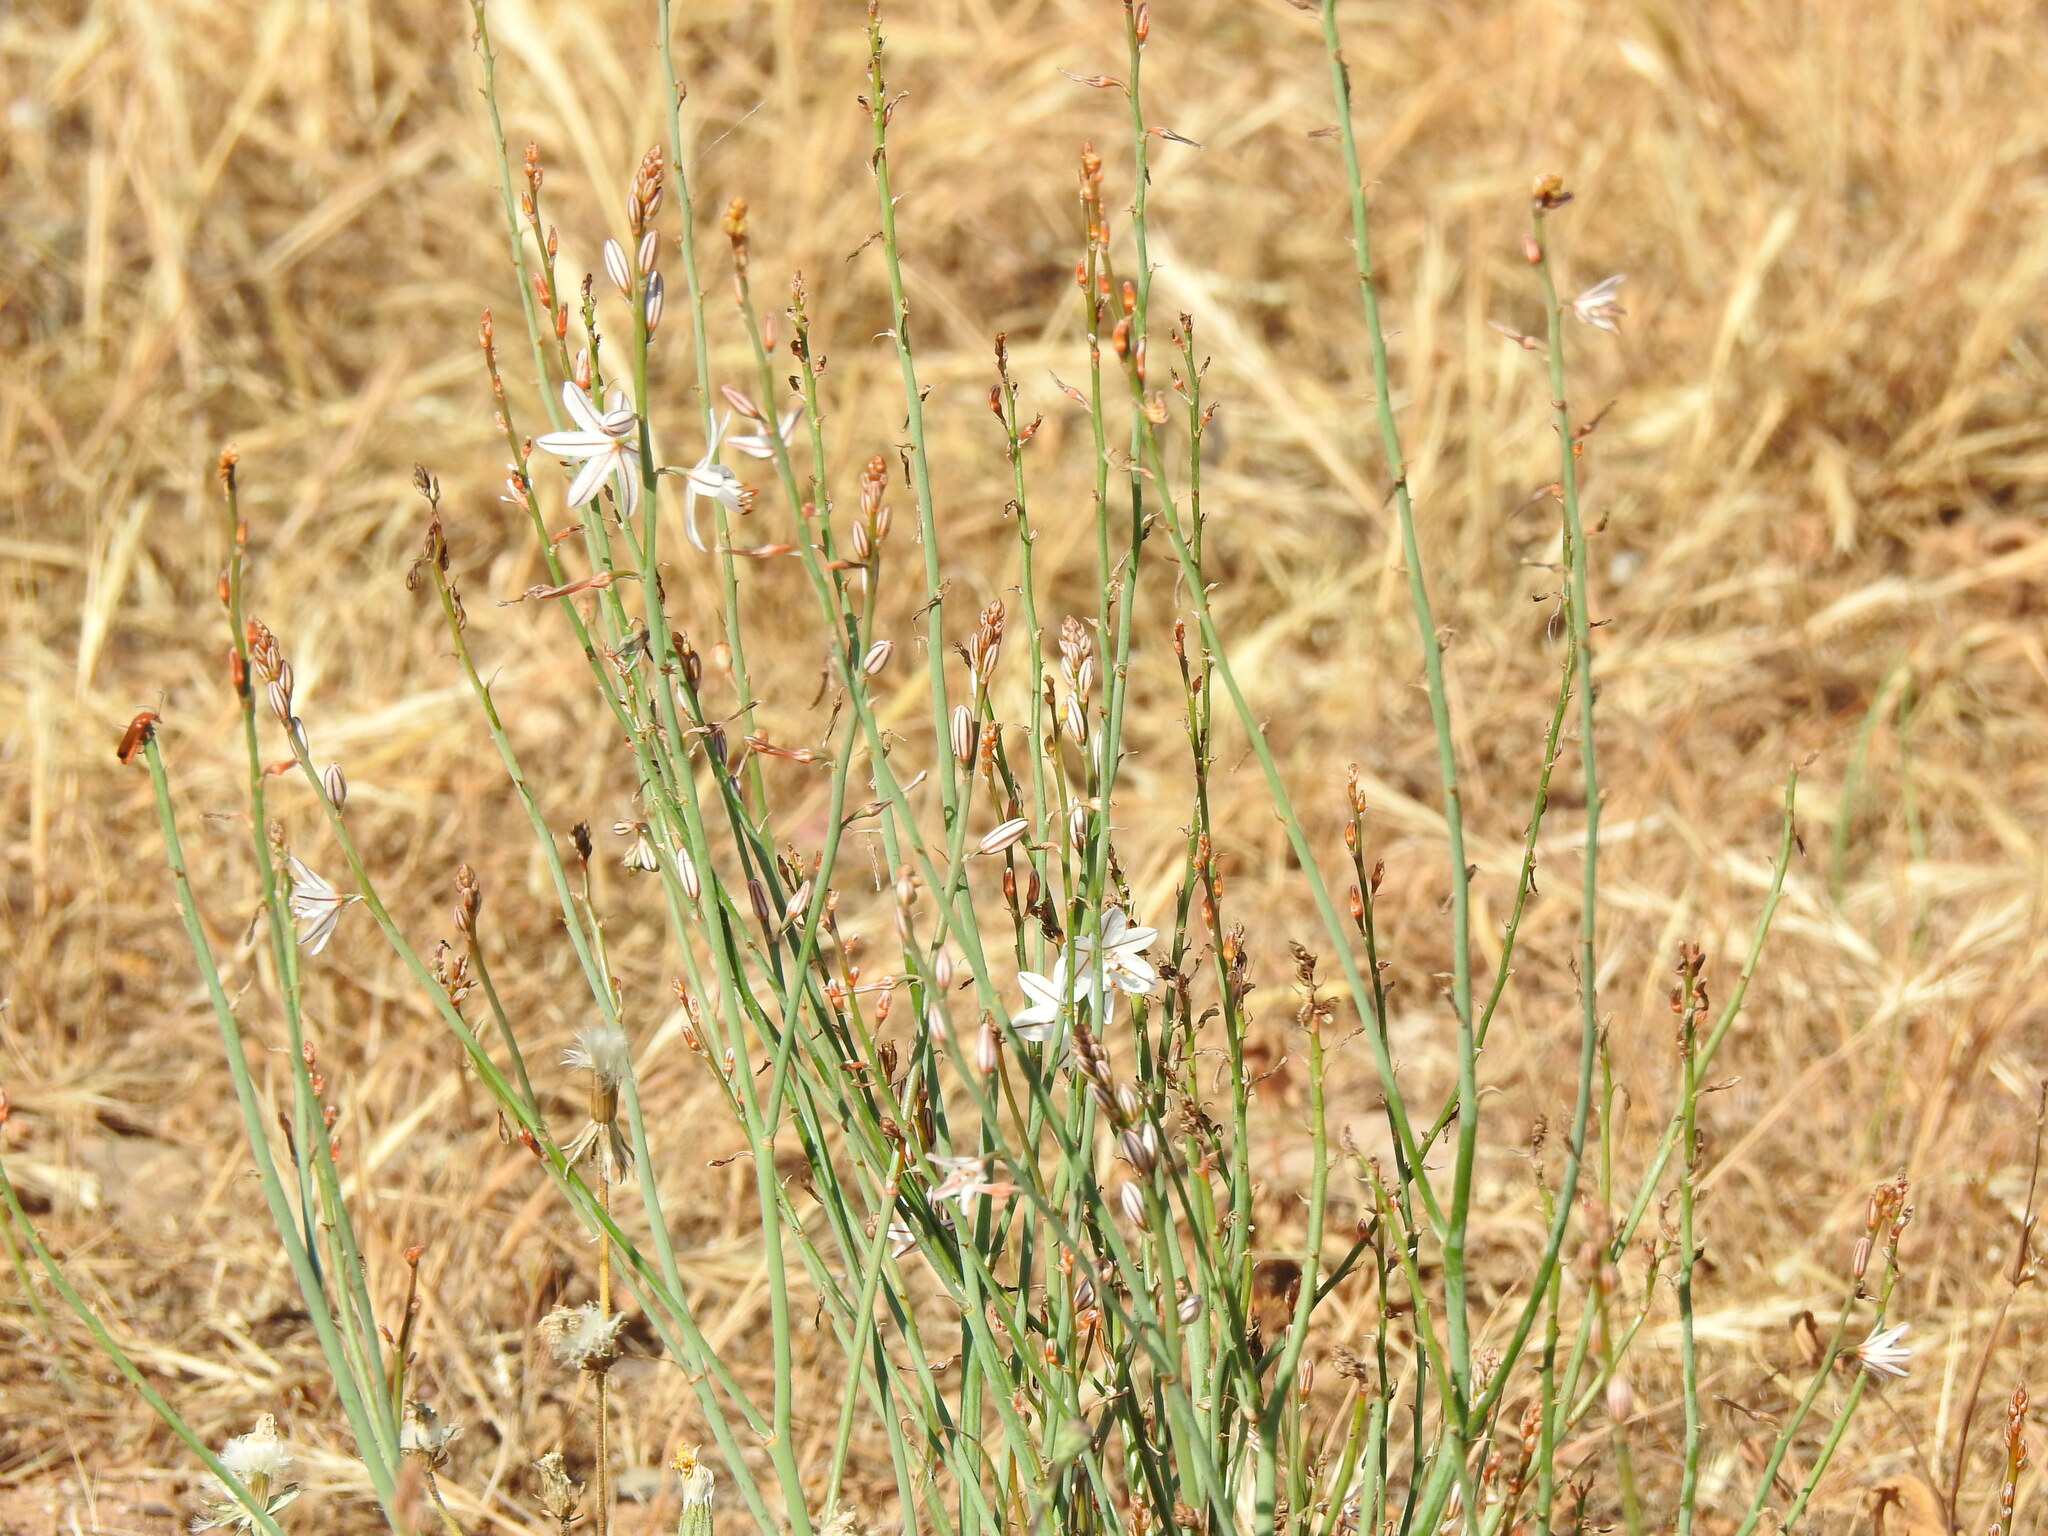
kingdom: Plantae
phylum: Tracheophyta
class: Liliopsida
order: Asparagales
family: Asphodelaceae
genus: Asphodelus
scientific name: Asphodelus fistulosus
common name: Onionweed
